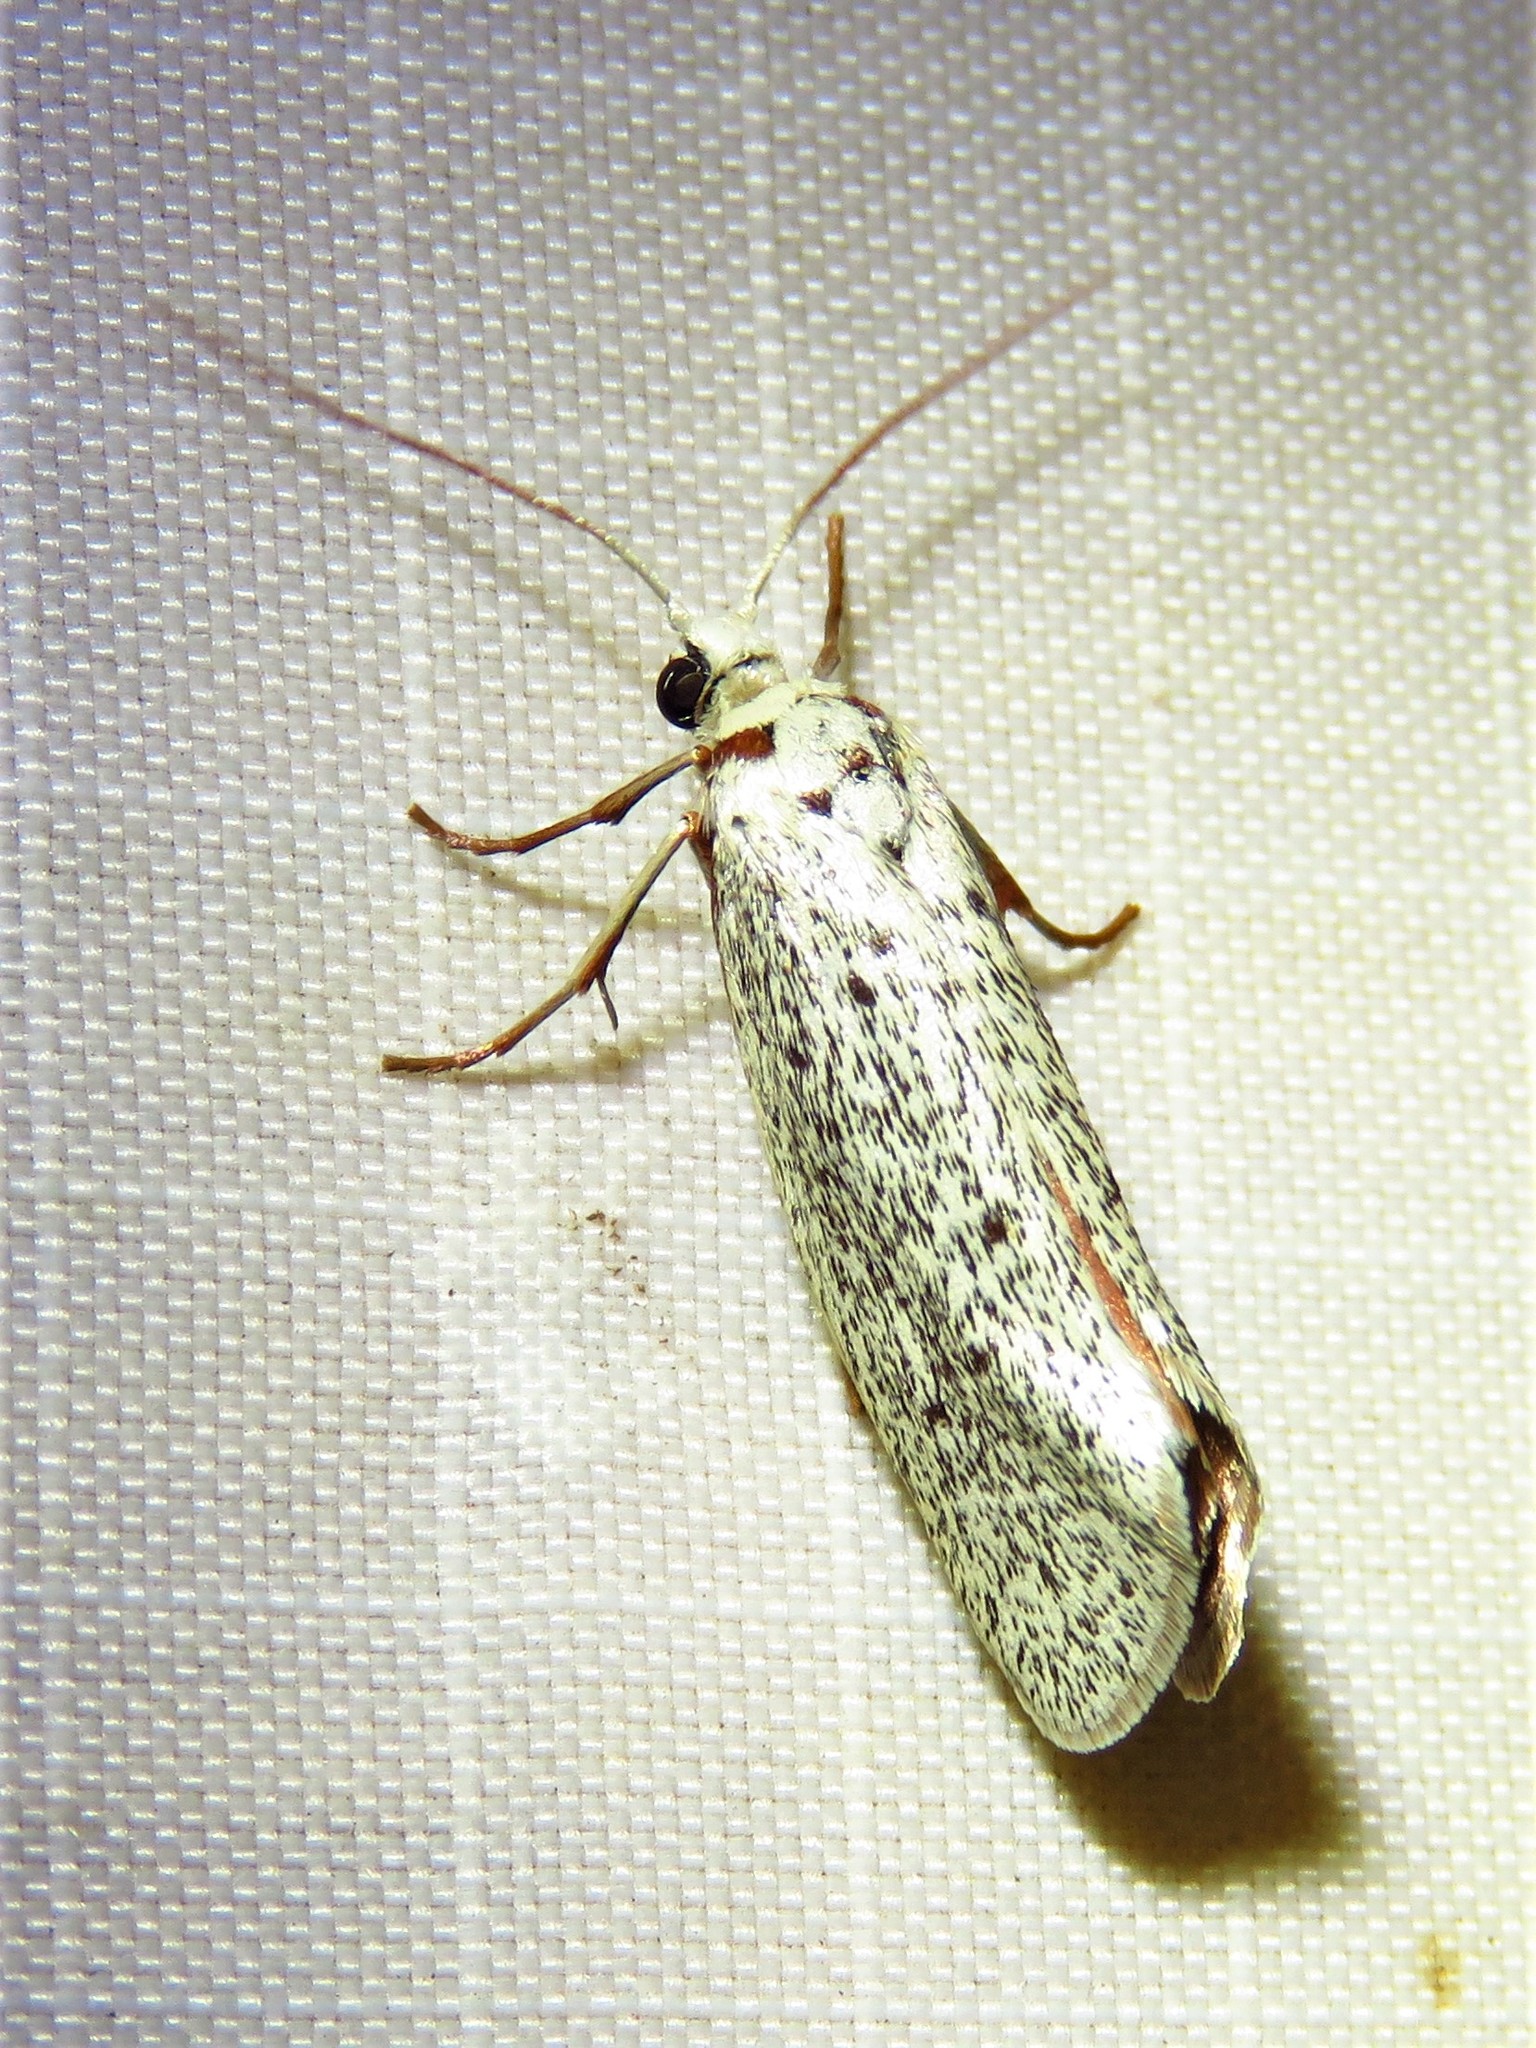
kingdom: Animalia
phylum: Arthropoda
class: Insecta
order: Lepidoptera
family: Lacturidae
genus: Lactura
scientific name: Lactura
